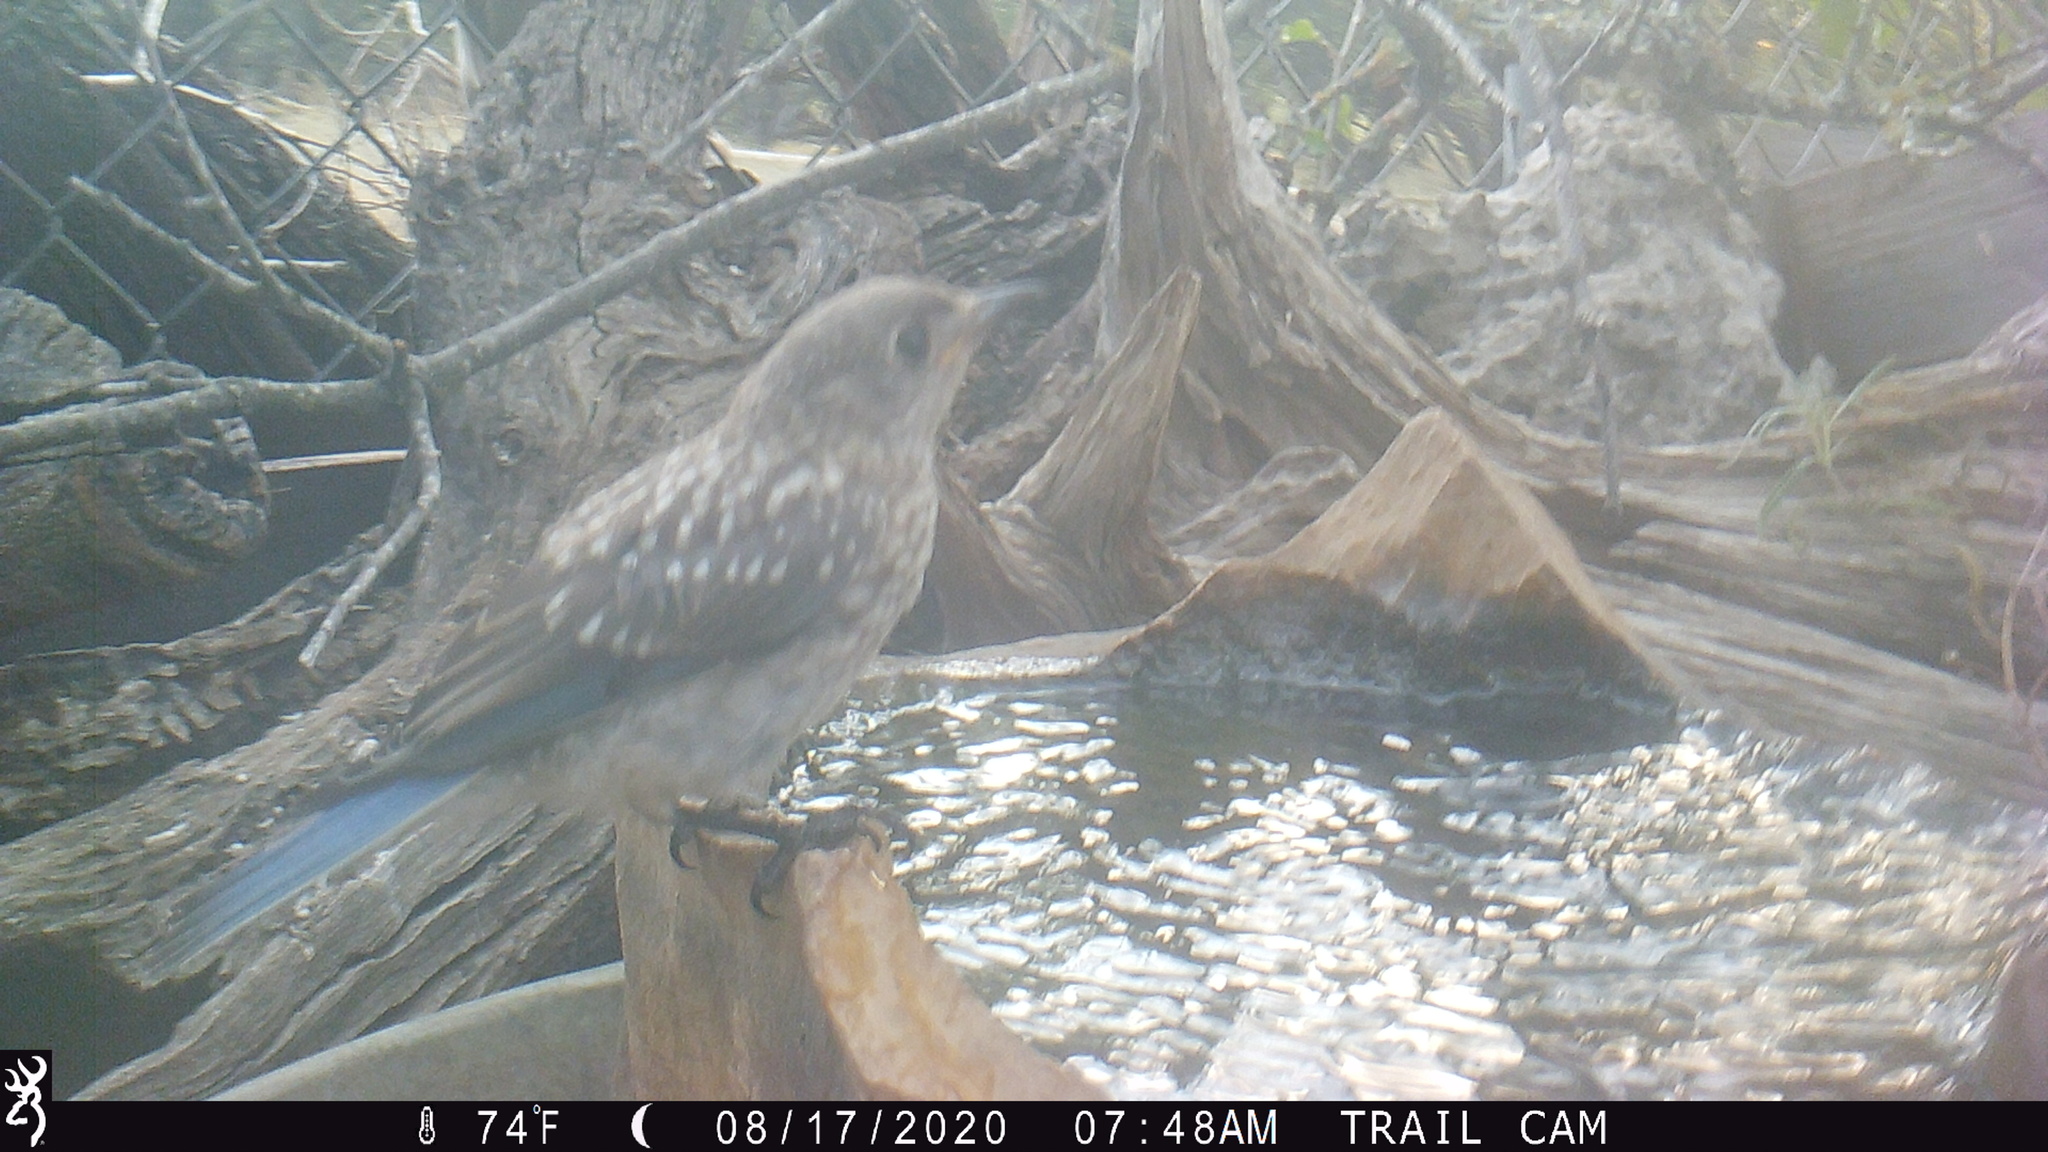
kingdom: Animalia
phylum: Chordata
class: Aves
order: Passeriformes
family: Turdidae
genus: Sialia
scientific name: Sialia sialis
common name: Eastern bluebird
